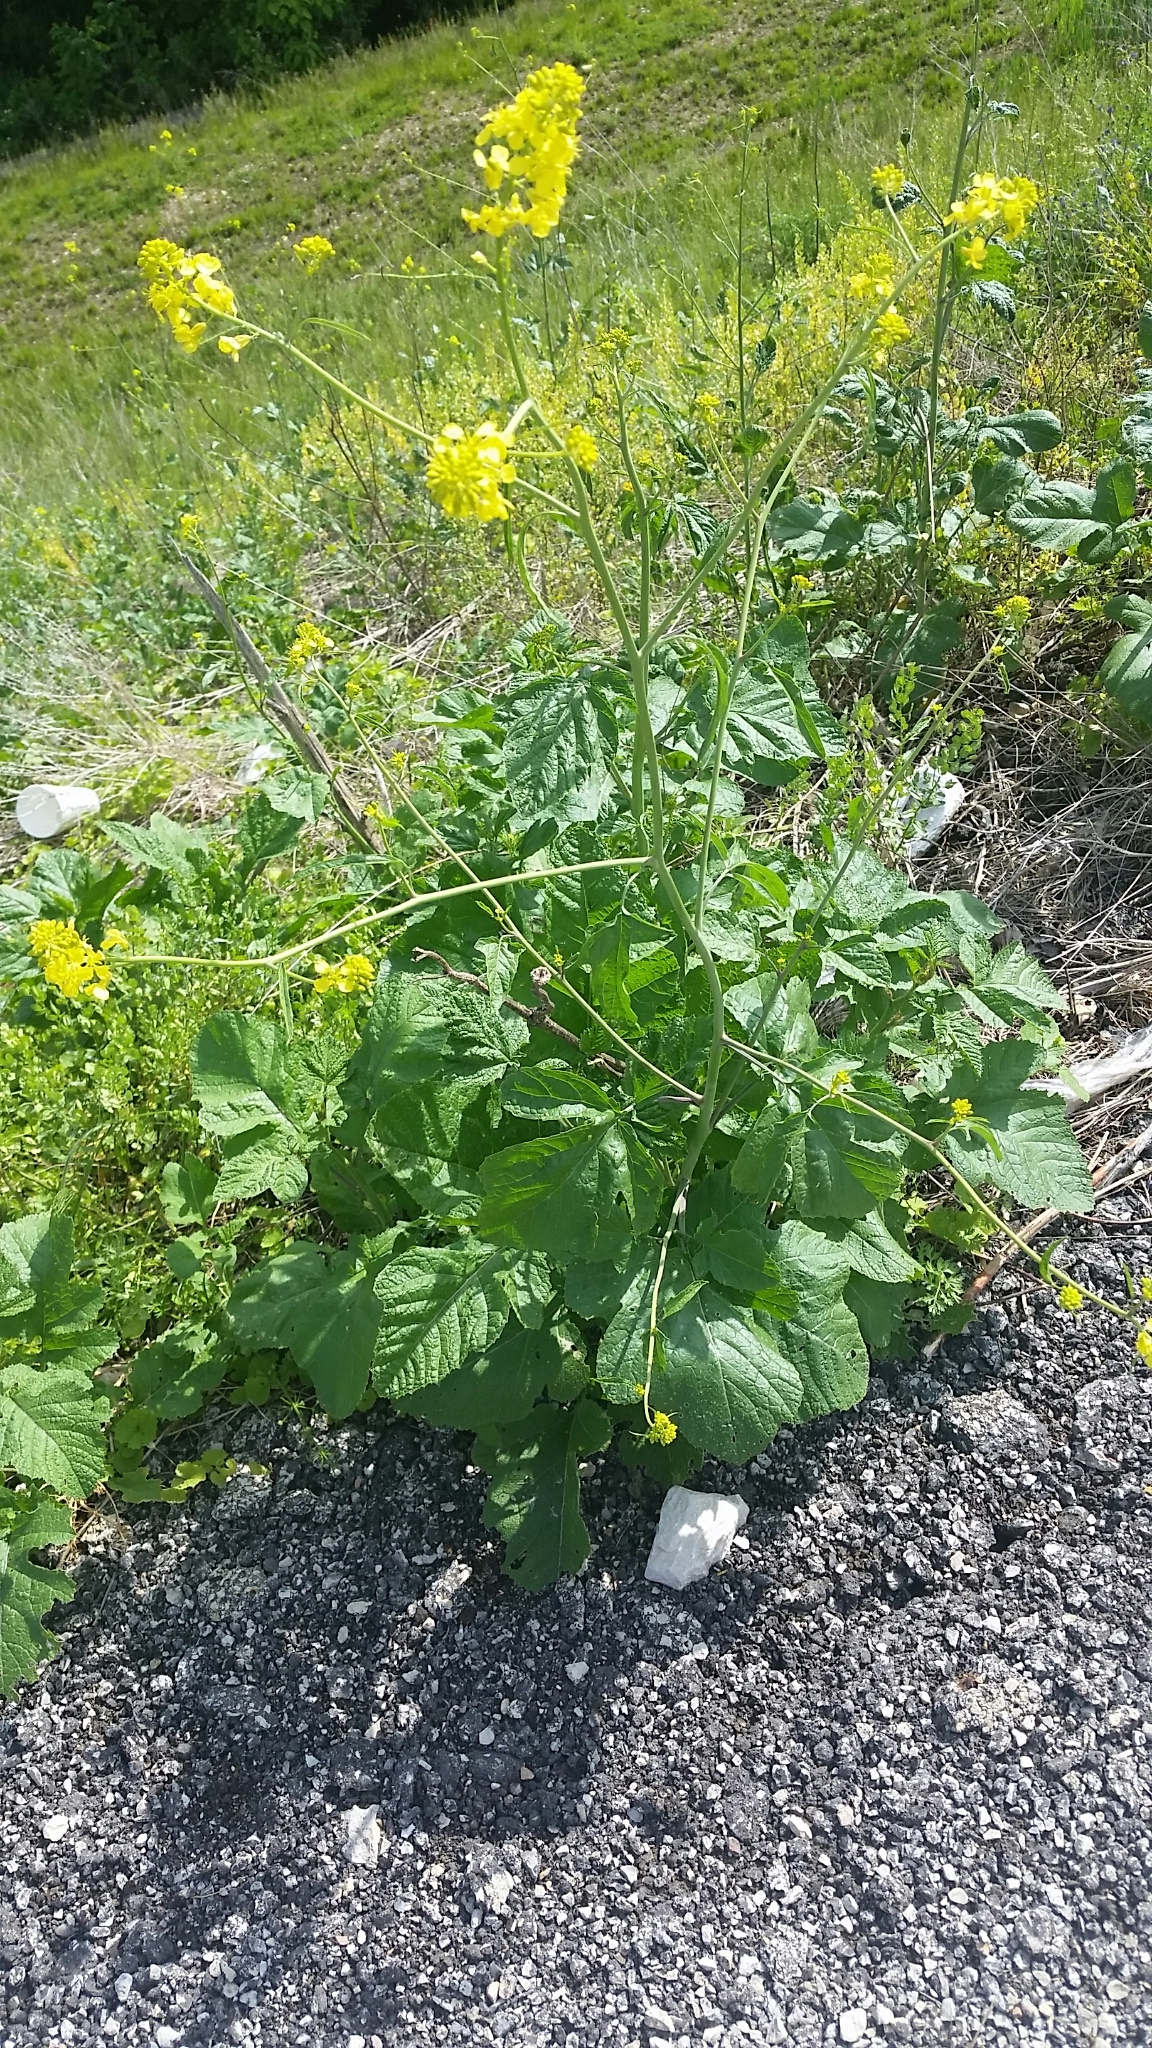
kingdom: Plantae
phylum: Tracheophyta
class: Magnoliopsida
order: Brassicales
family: Brassicaceae
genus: Brassica
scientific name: Brassica nigra
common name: Black mustard
